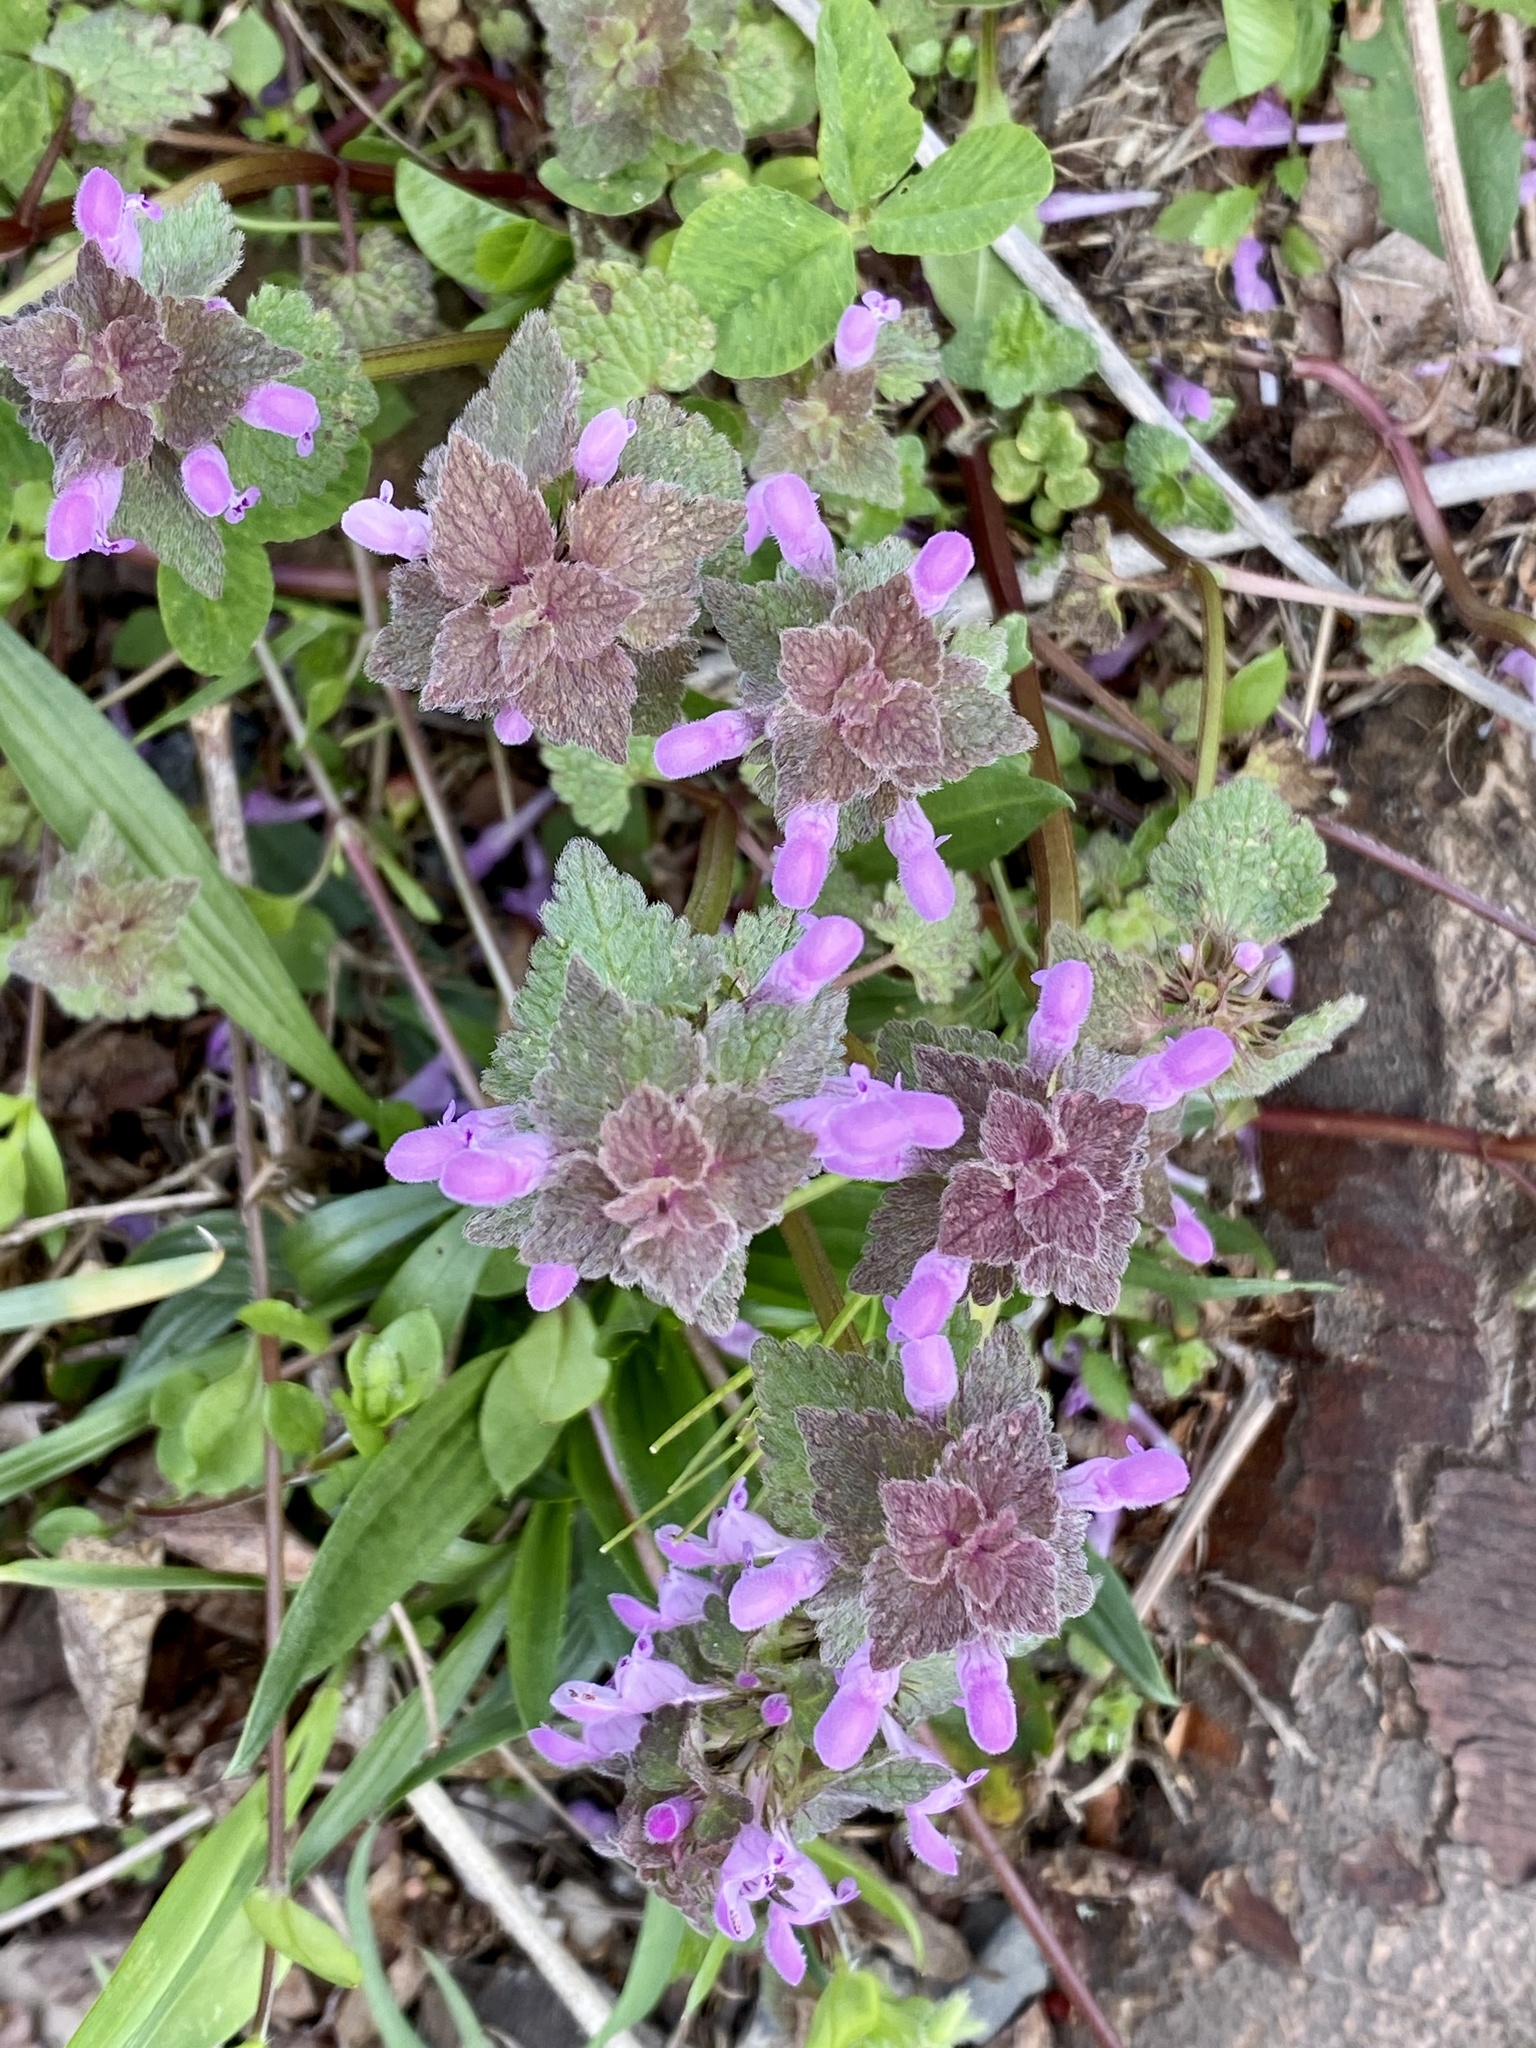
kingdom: Plantae
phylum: Tracheophyta
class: Magnoliopsida
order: Lamiales
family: Lamiaceae
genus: Lamium
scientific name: Lamium purpureum
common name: Red dead-nettle
